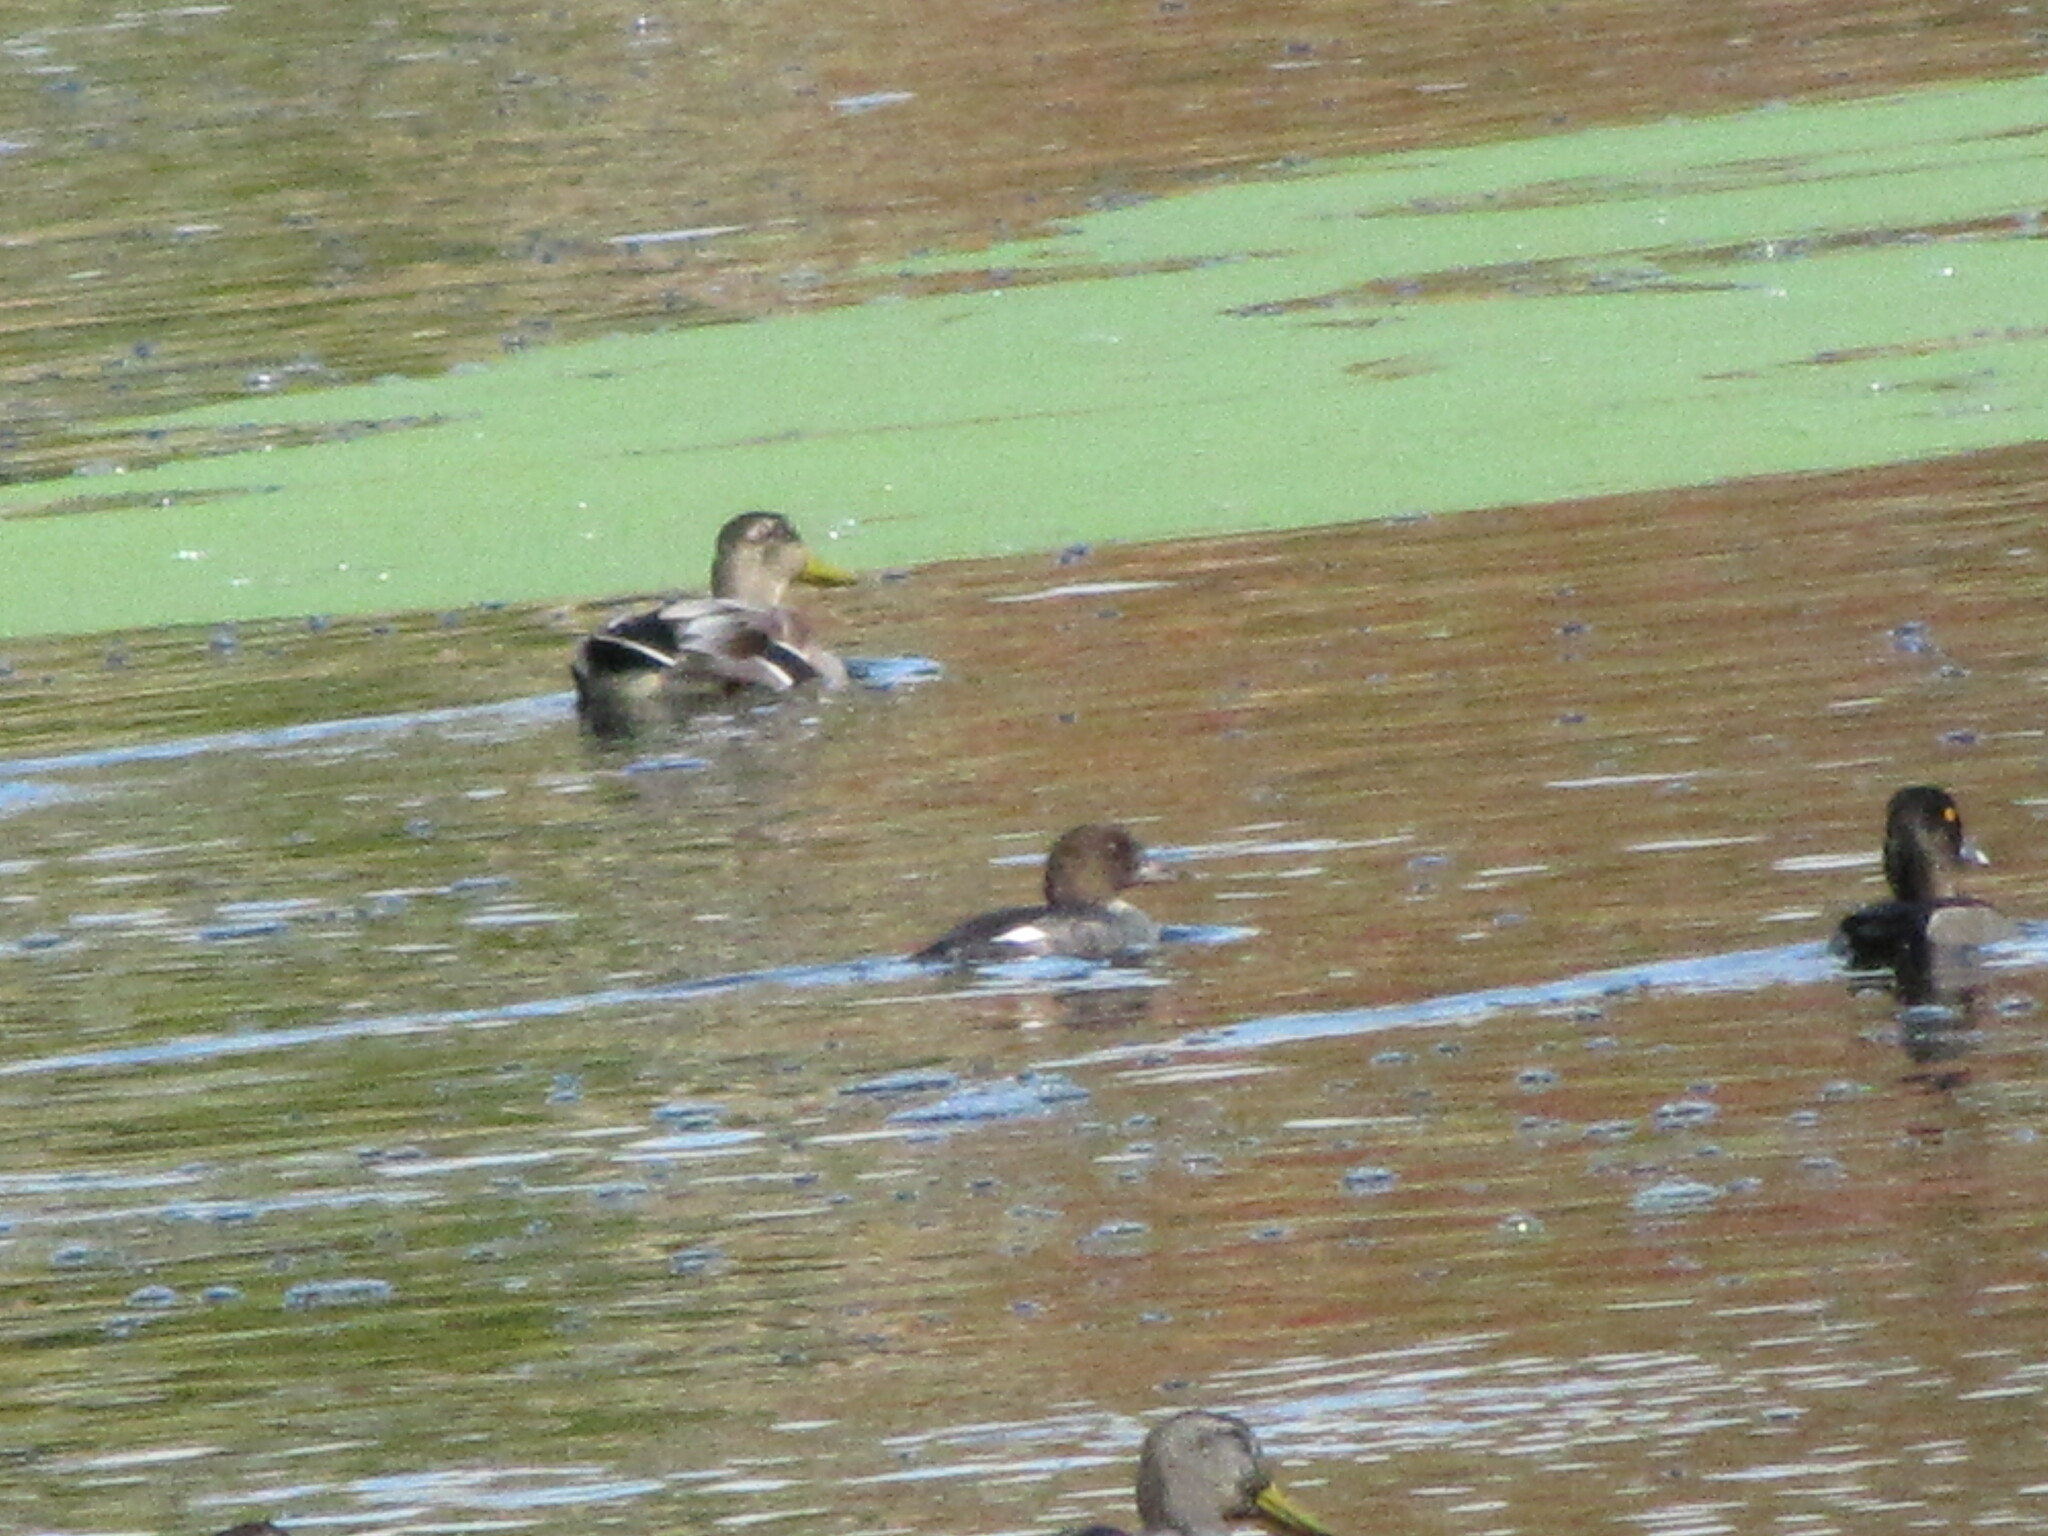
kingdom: Animalia
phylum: Chordata
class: Aves
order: Anseriformes
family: Anatidae
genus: Bucephala
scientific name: Bucephala clangula
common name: Common goldeneye
